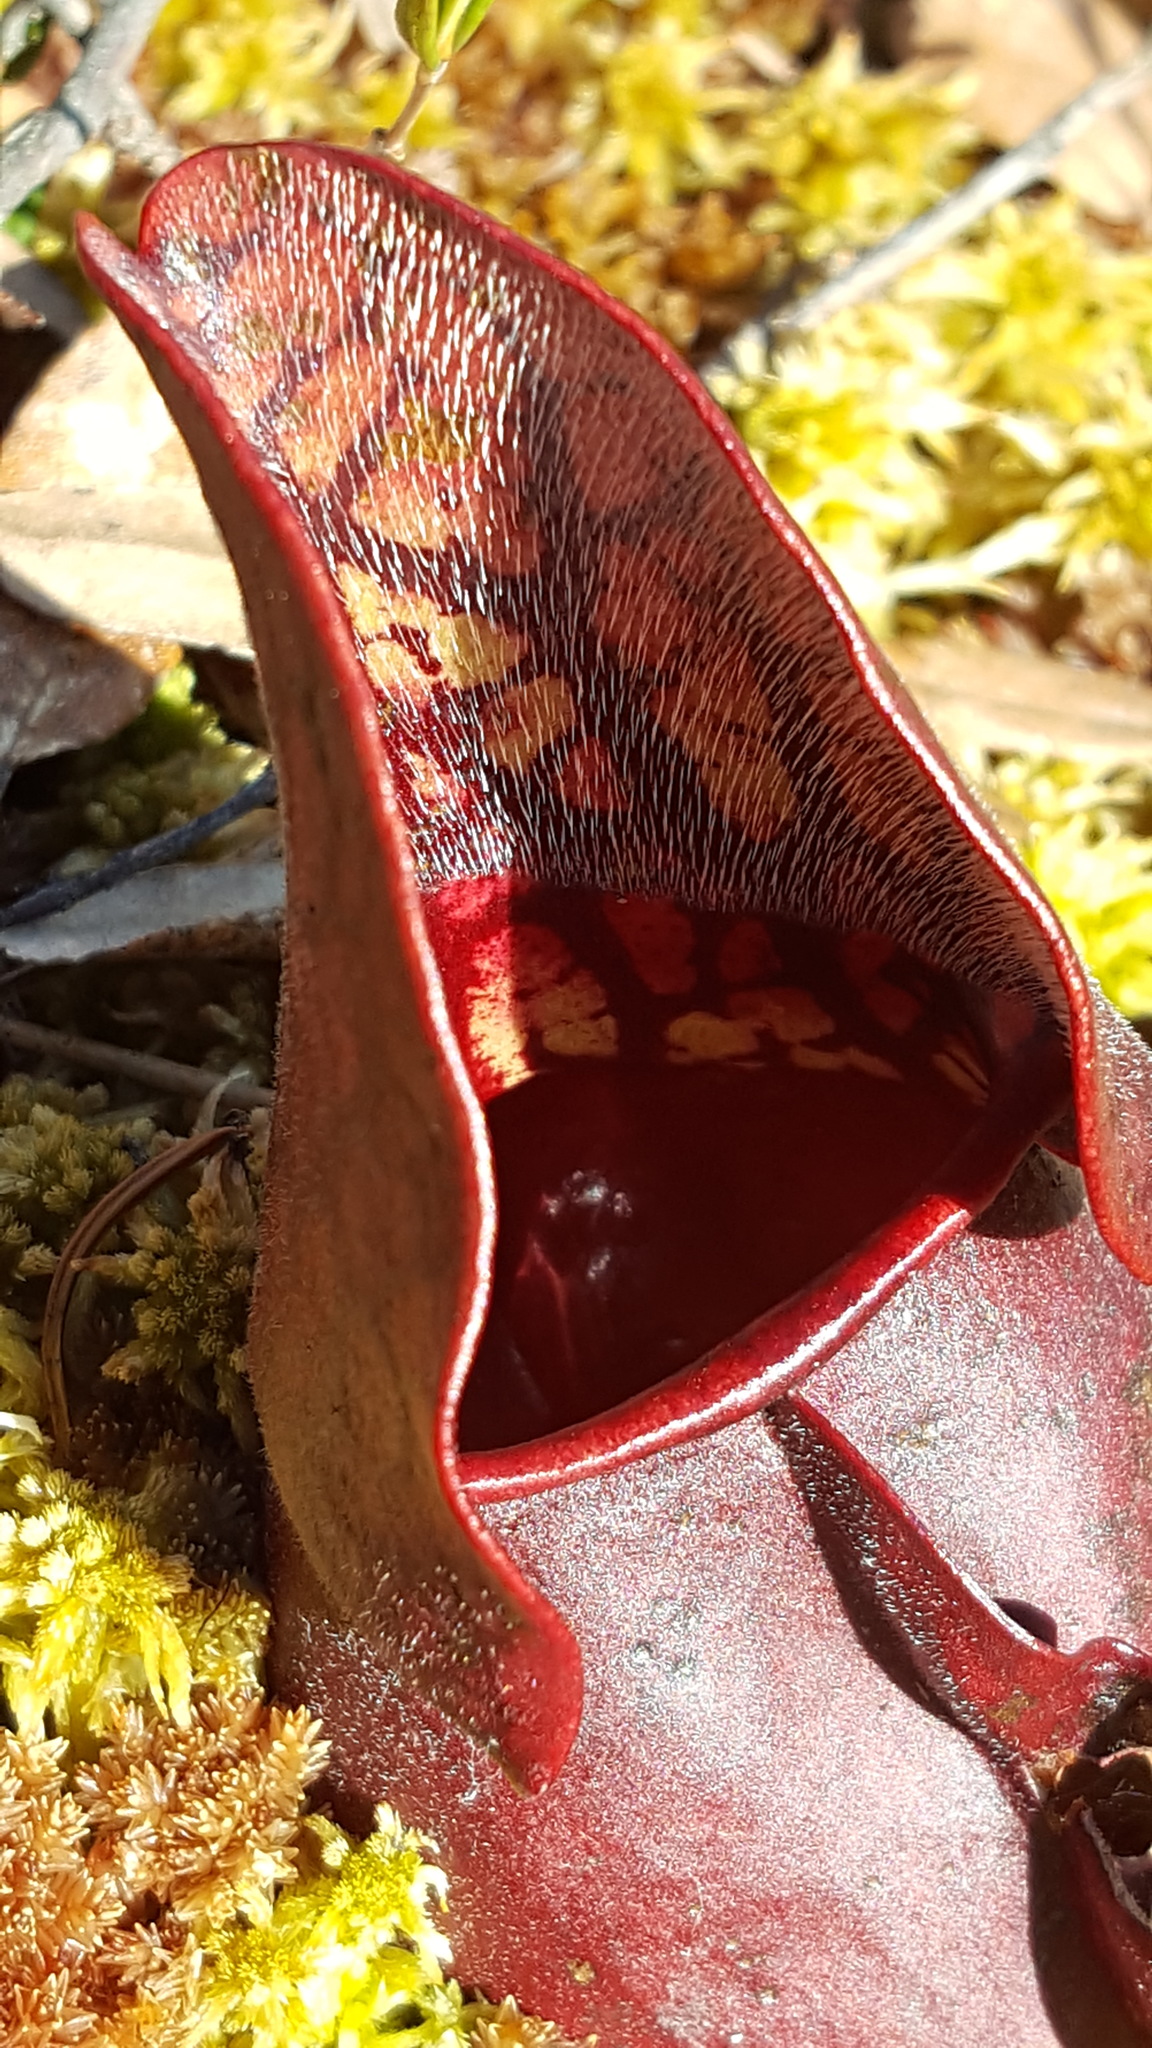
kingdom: Plantae
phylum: Tracheophyta
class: Magnoliopsida
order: Ericales
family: Sarraceniaceae
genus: Sarracenia
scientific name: Sarracenia purpurea
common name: Pitcherplant
